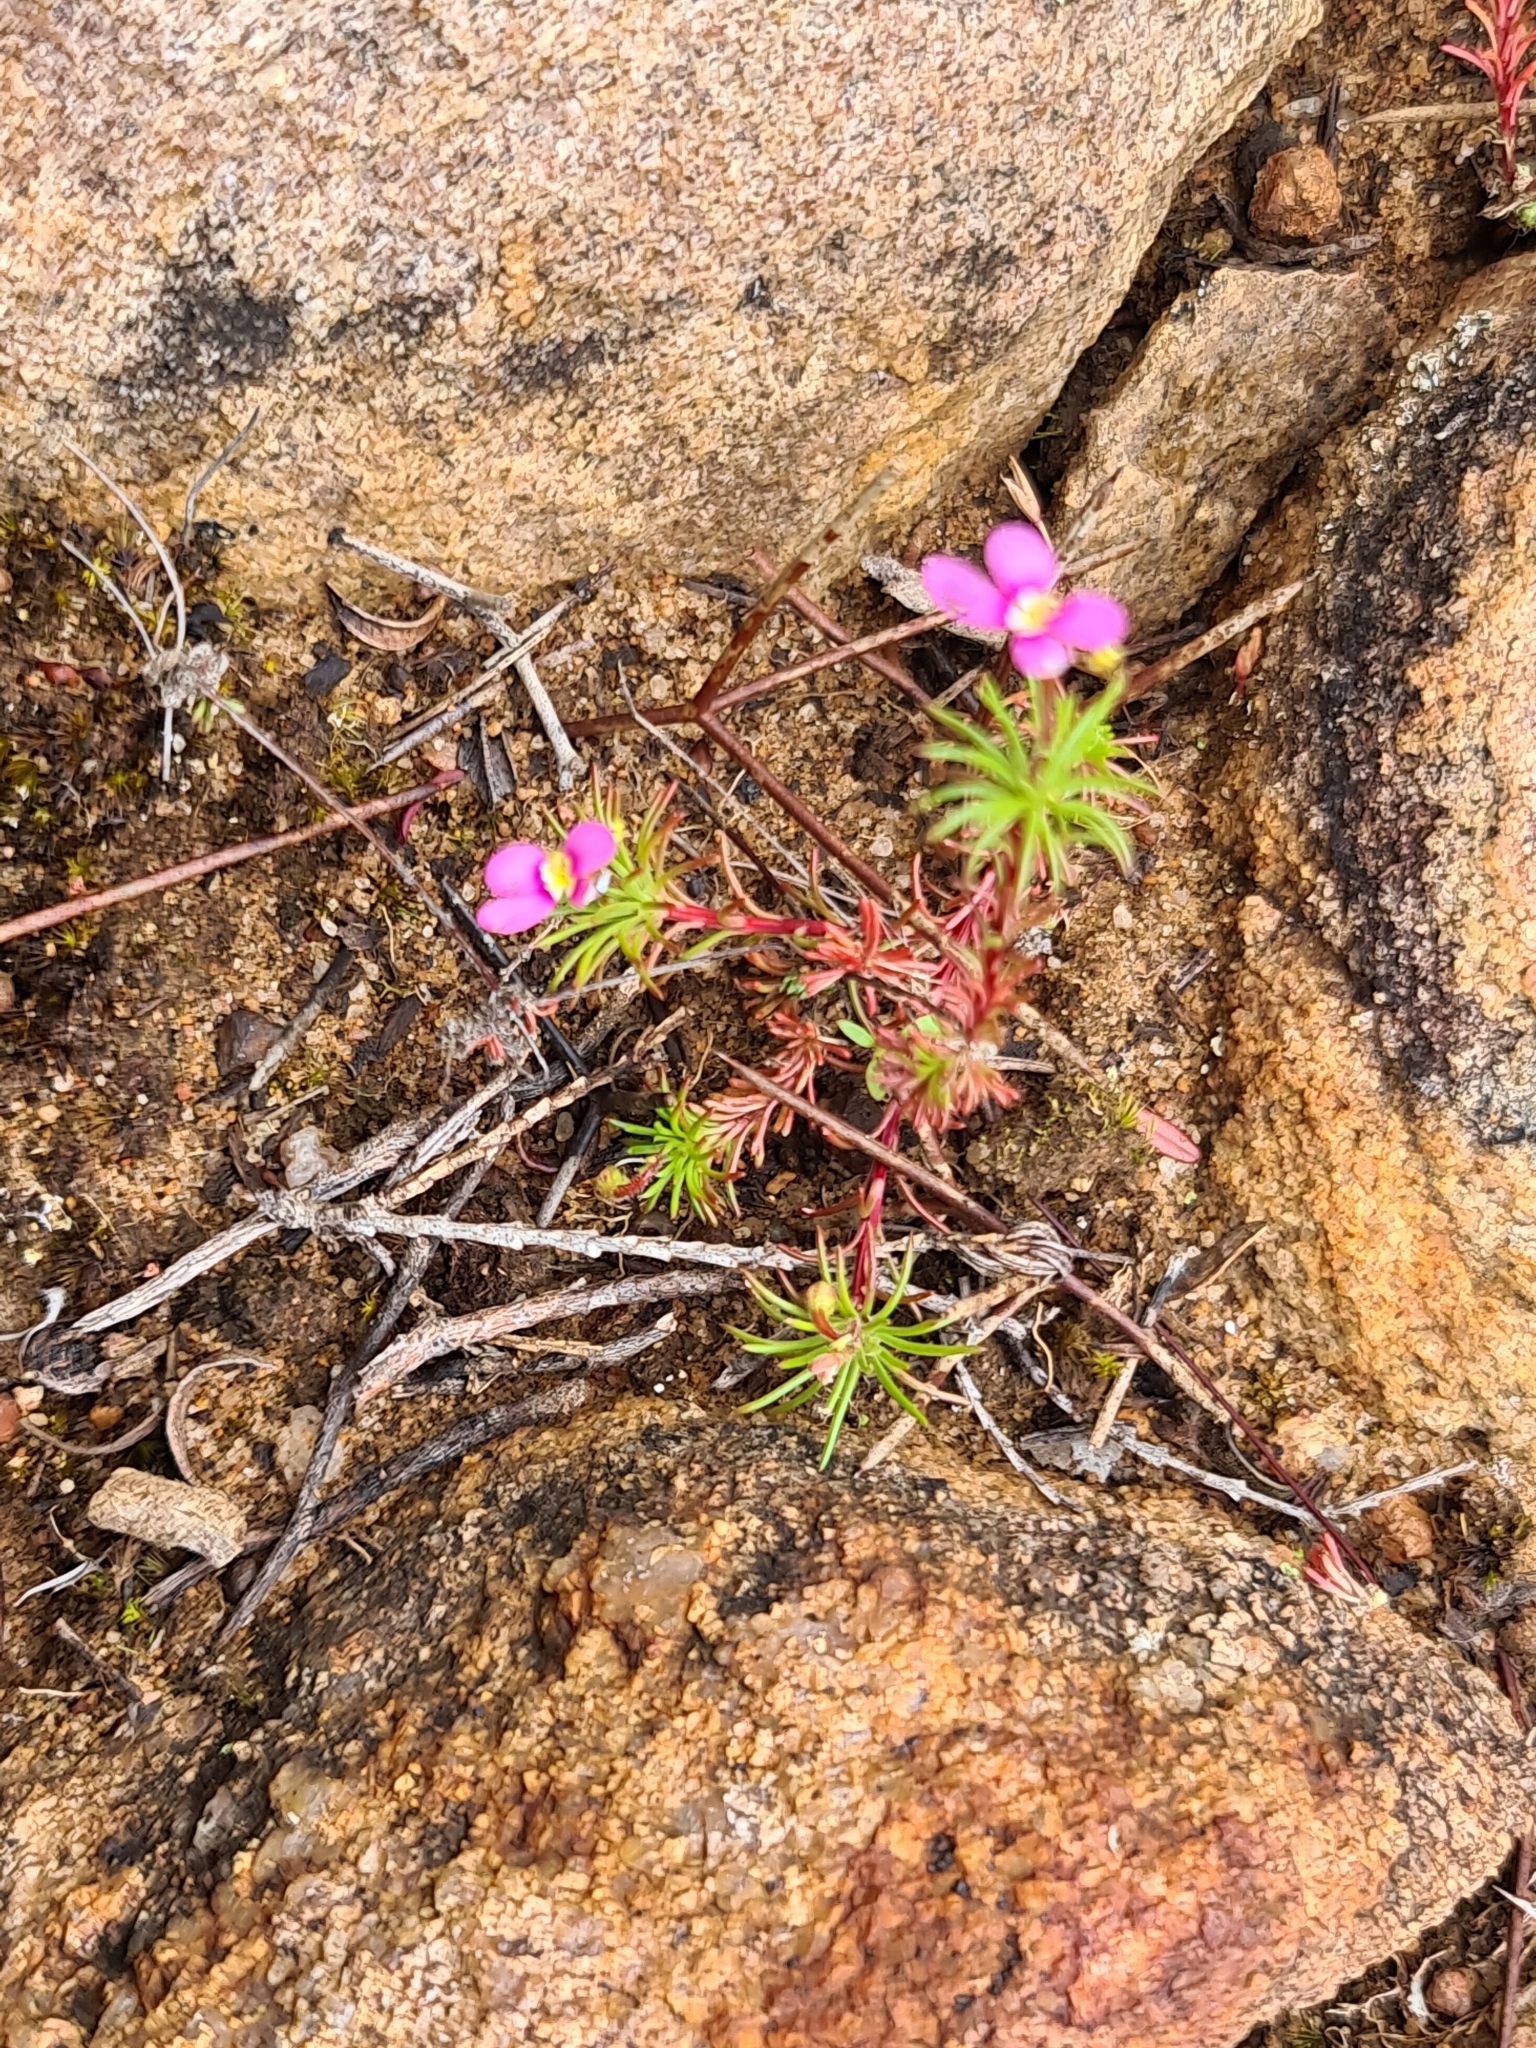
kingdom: Plantae
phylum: Tracheophyta
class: Magnoliopsida
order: Asterales
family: Stylidiaceae
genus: Stylidium
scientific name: Stylidium dichotomum
